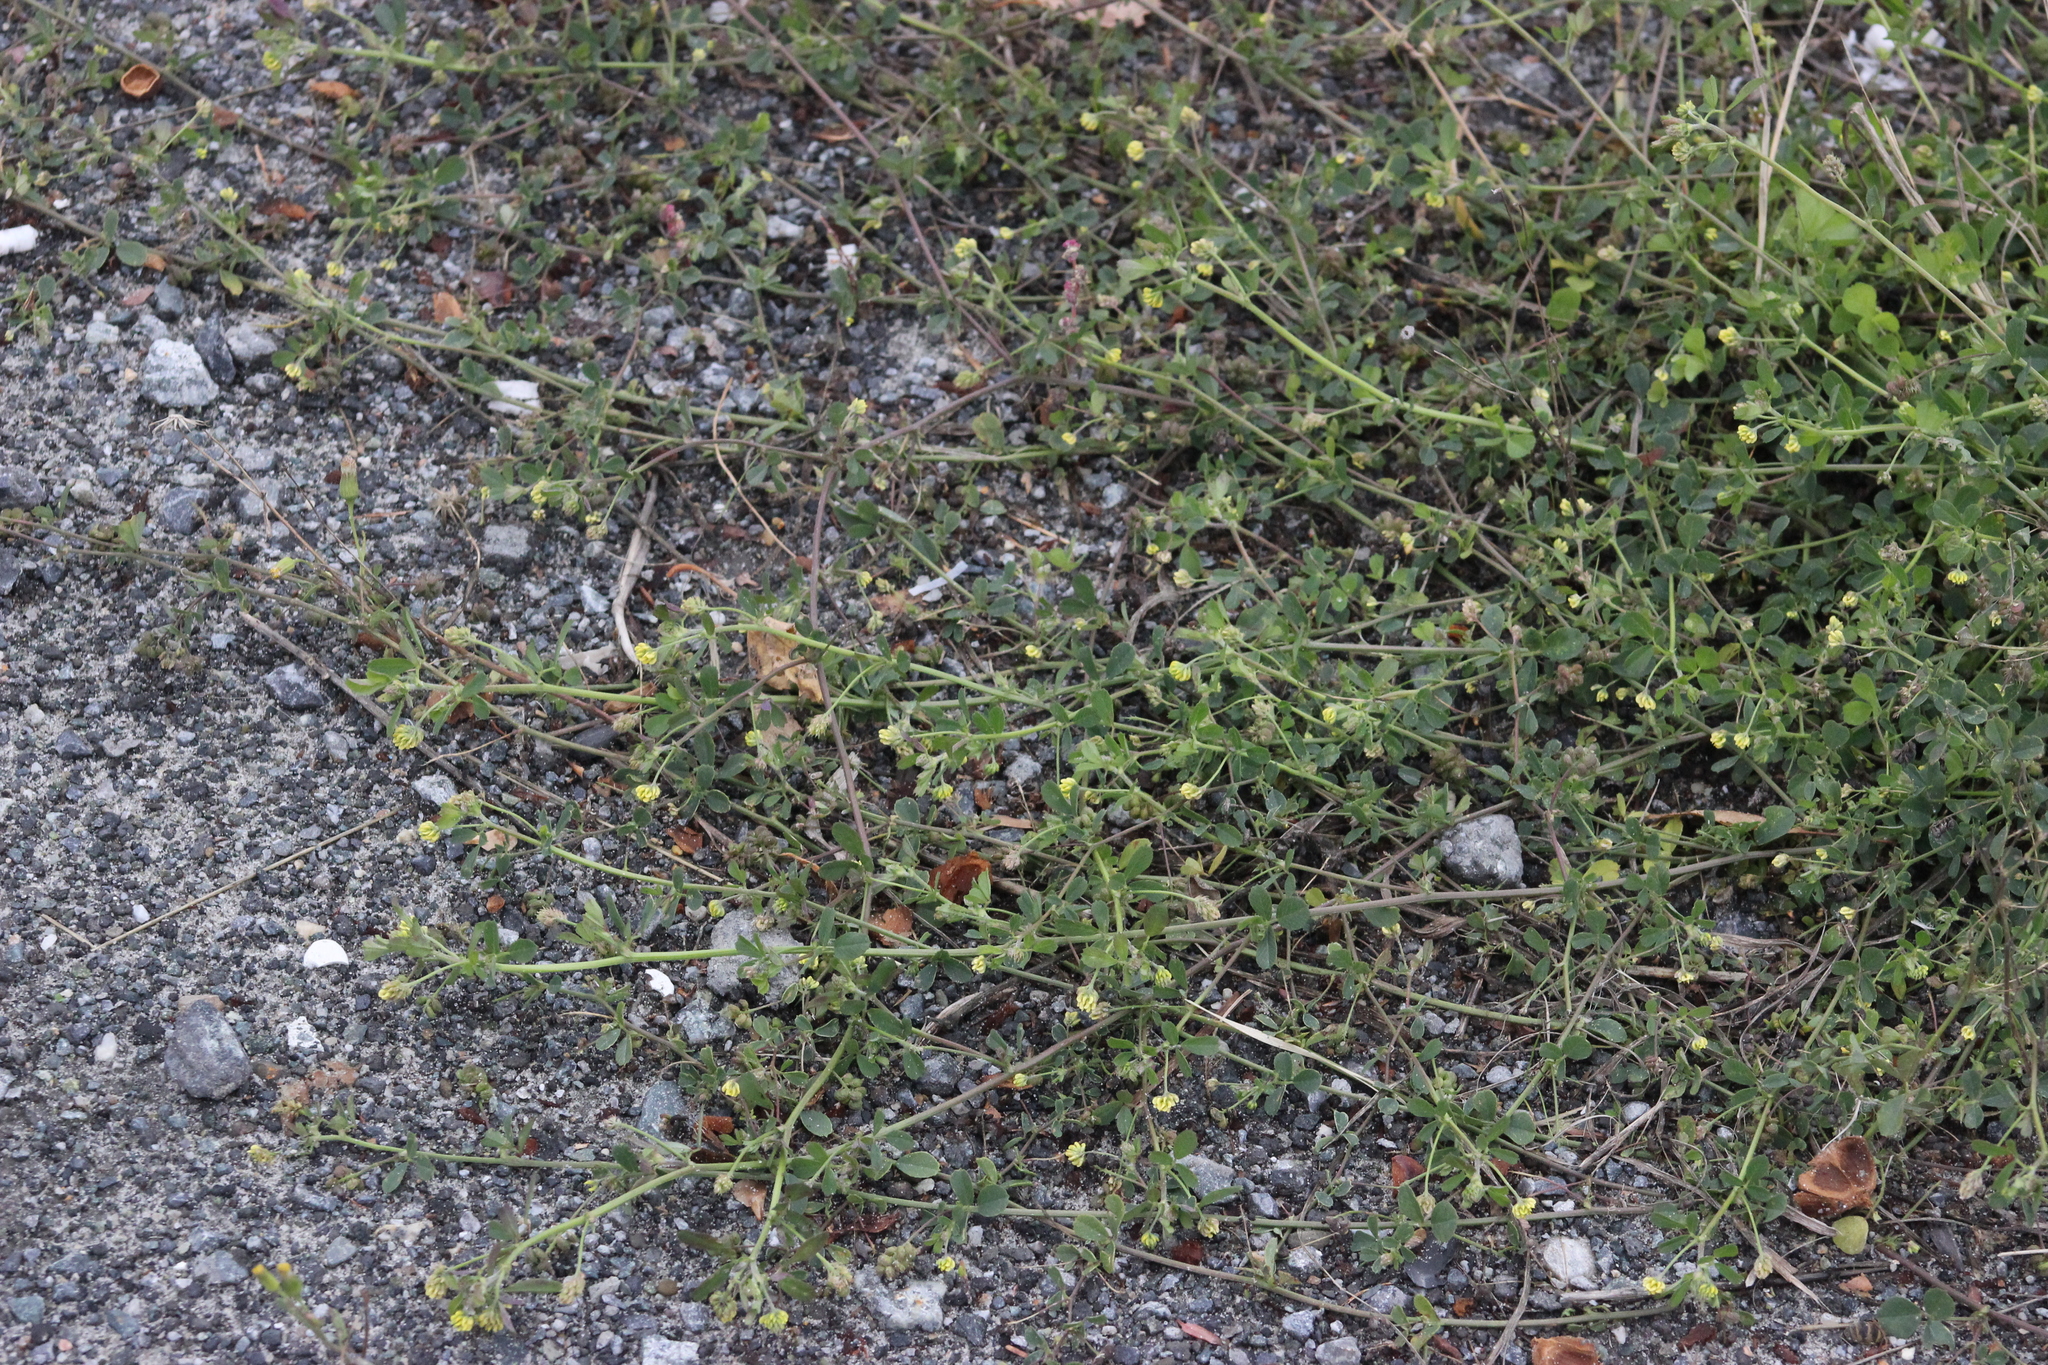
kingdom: Plantae
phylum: Tracheophyta
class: Magnoliopsida
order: Fabales
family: Fabaceae
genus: Medicago
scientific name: Medicago lupulina
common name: Black medick
